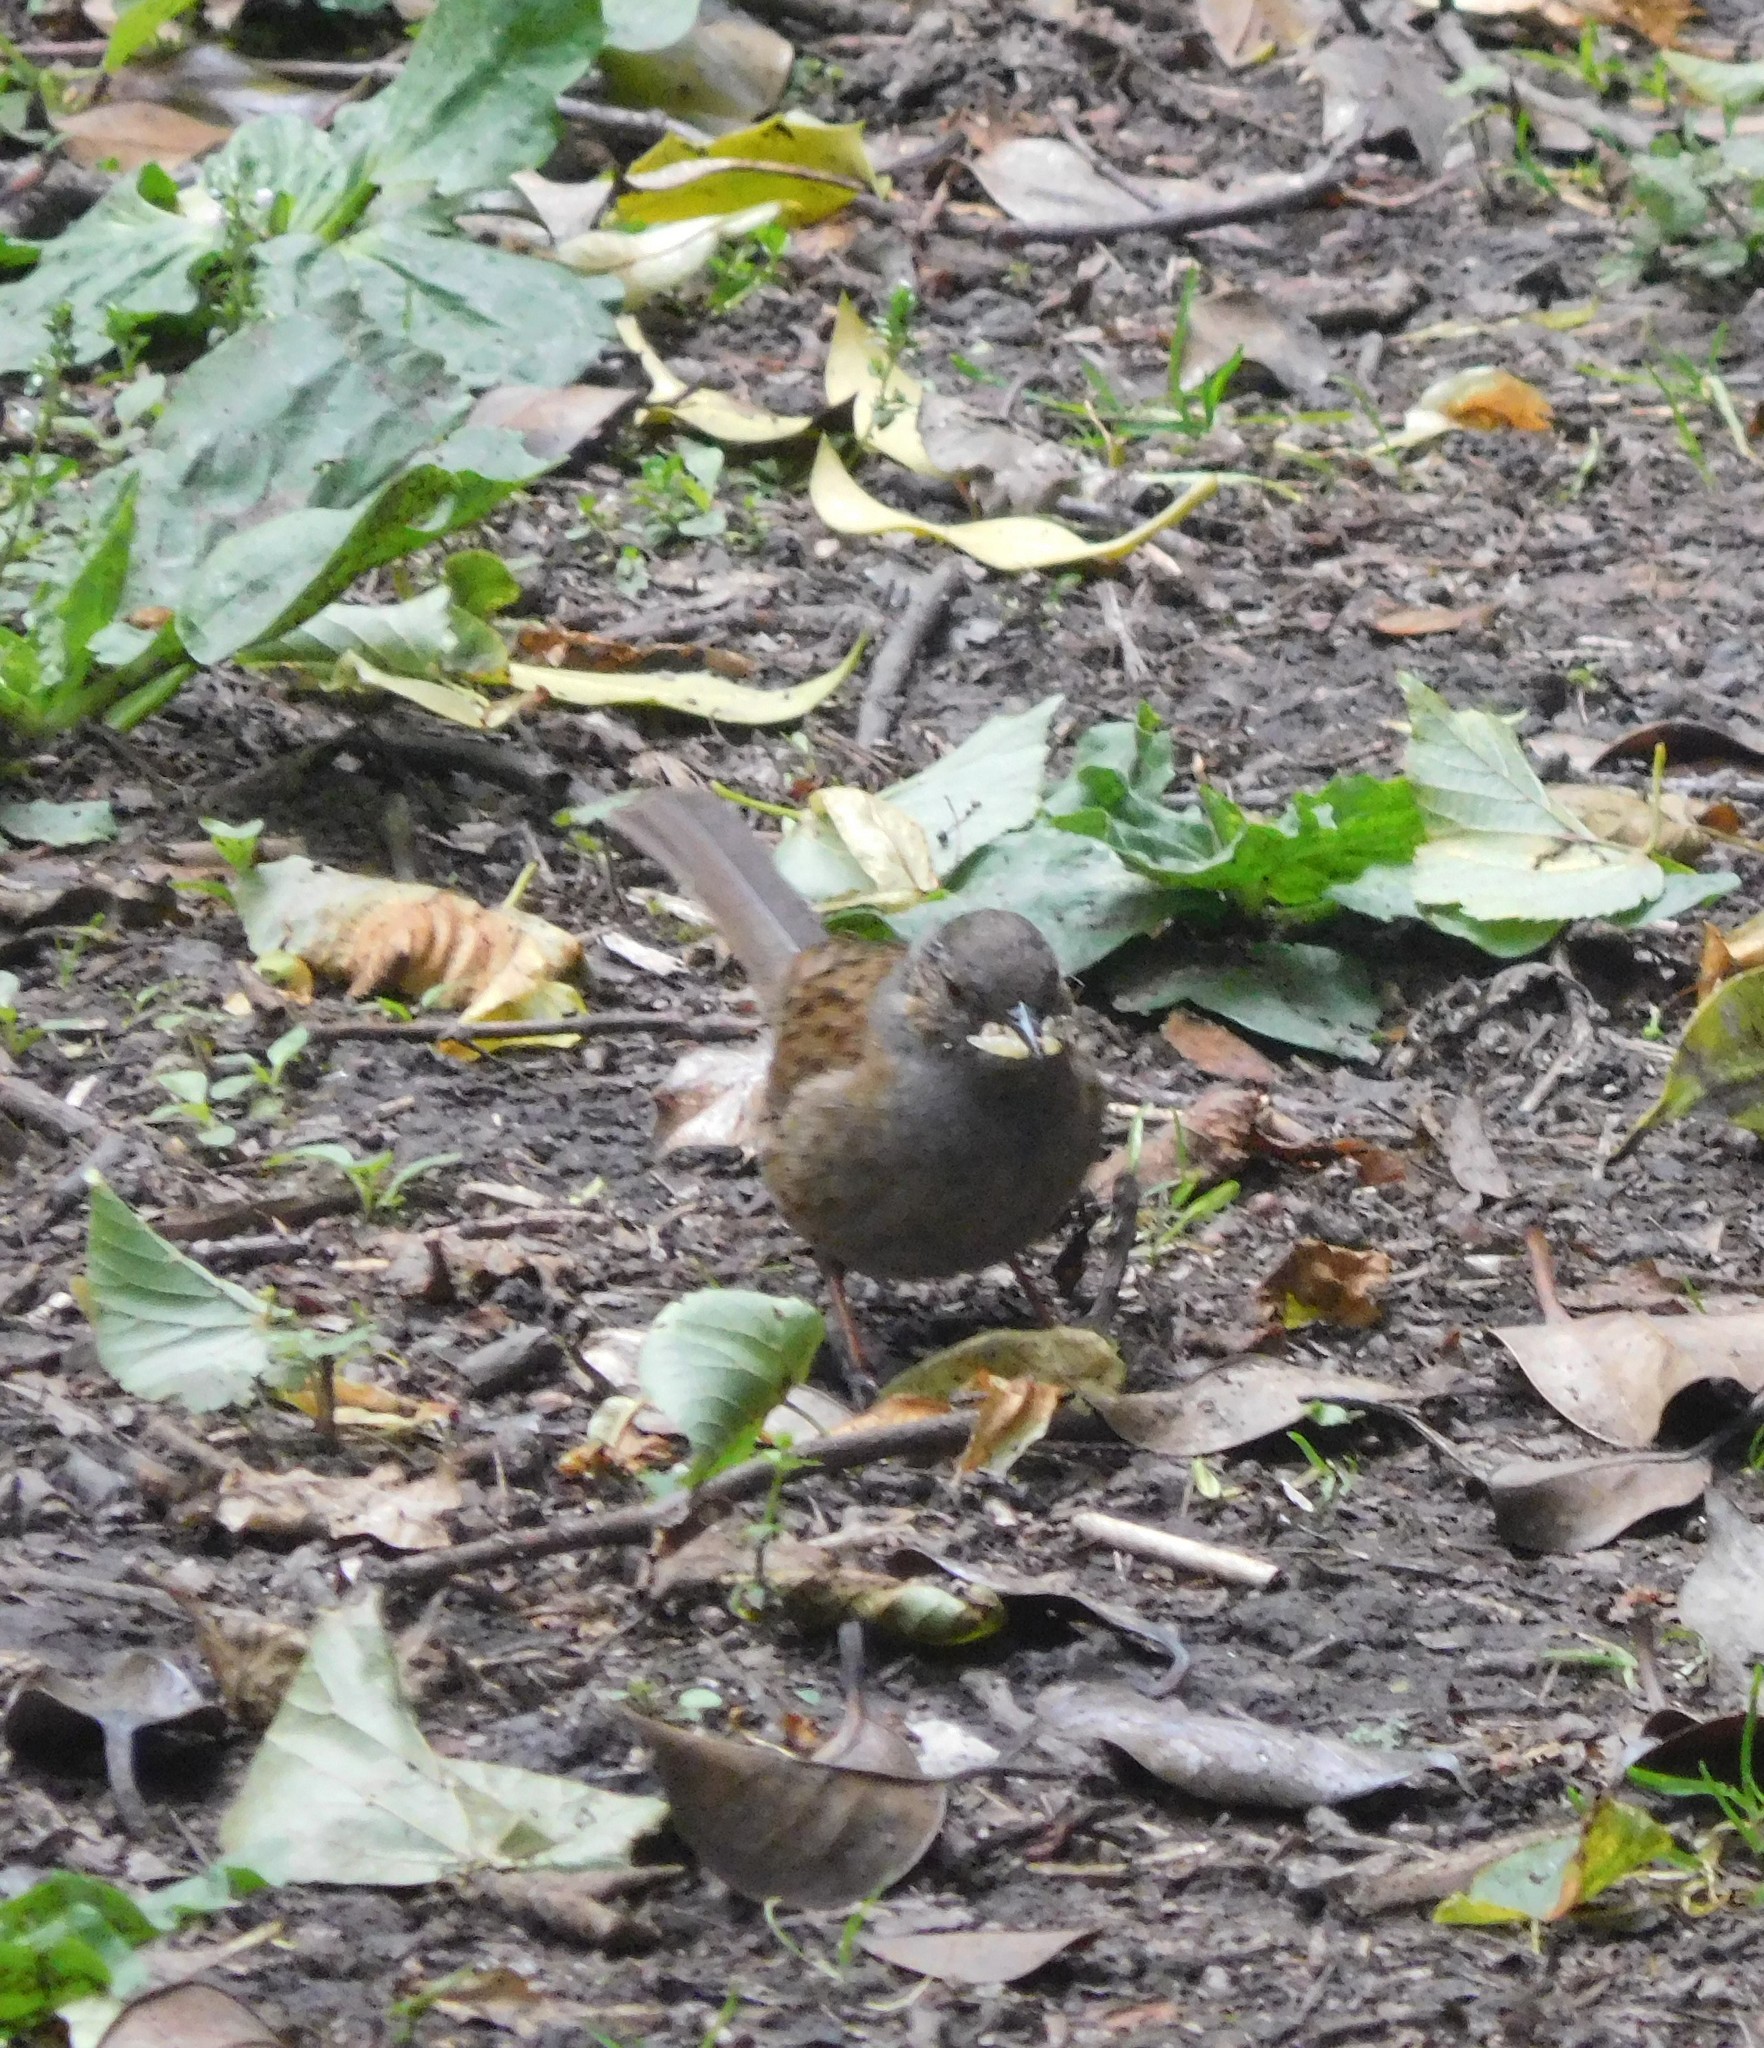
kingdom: Animalia
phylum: Chordata
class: Aves
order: Passeriformes
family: Prunellidae
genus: Prunella
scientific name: Prunella modularis
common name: Dunnock
